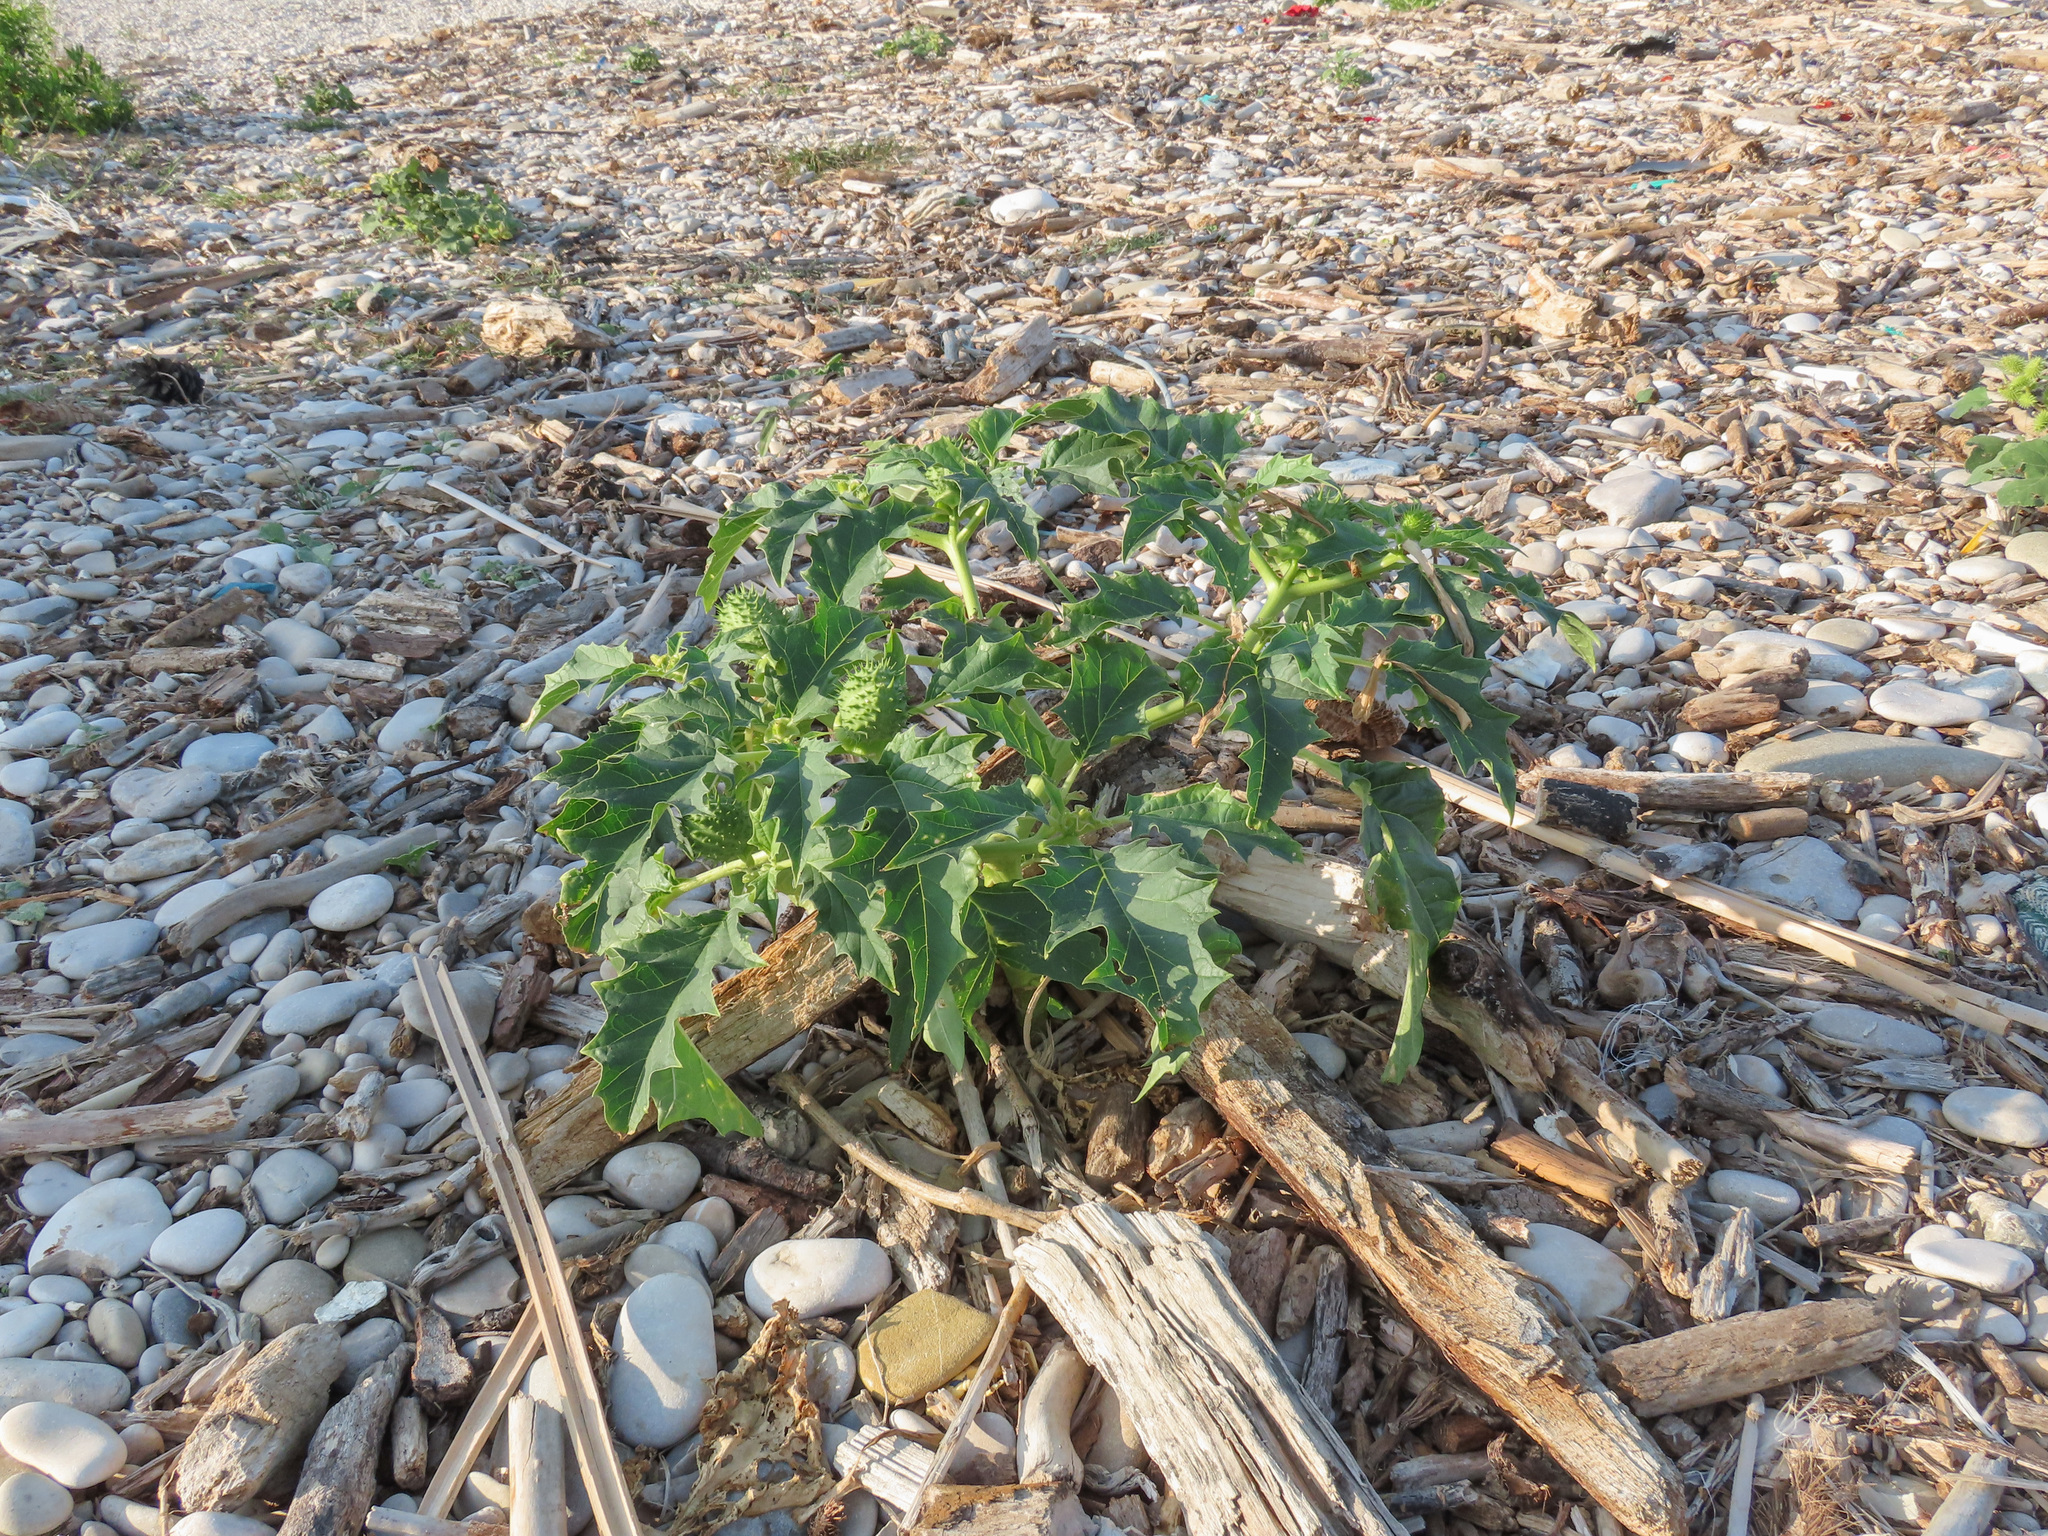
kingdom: Plantae
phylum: Tracheophyta
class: Magnoliopsida
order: Solanales
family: Solanaceae
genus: Datura
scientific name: Datura stramonium
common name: Thorn-apple
